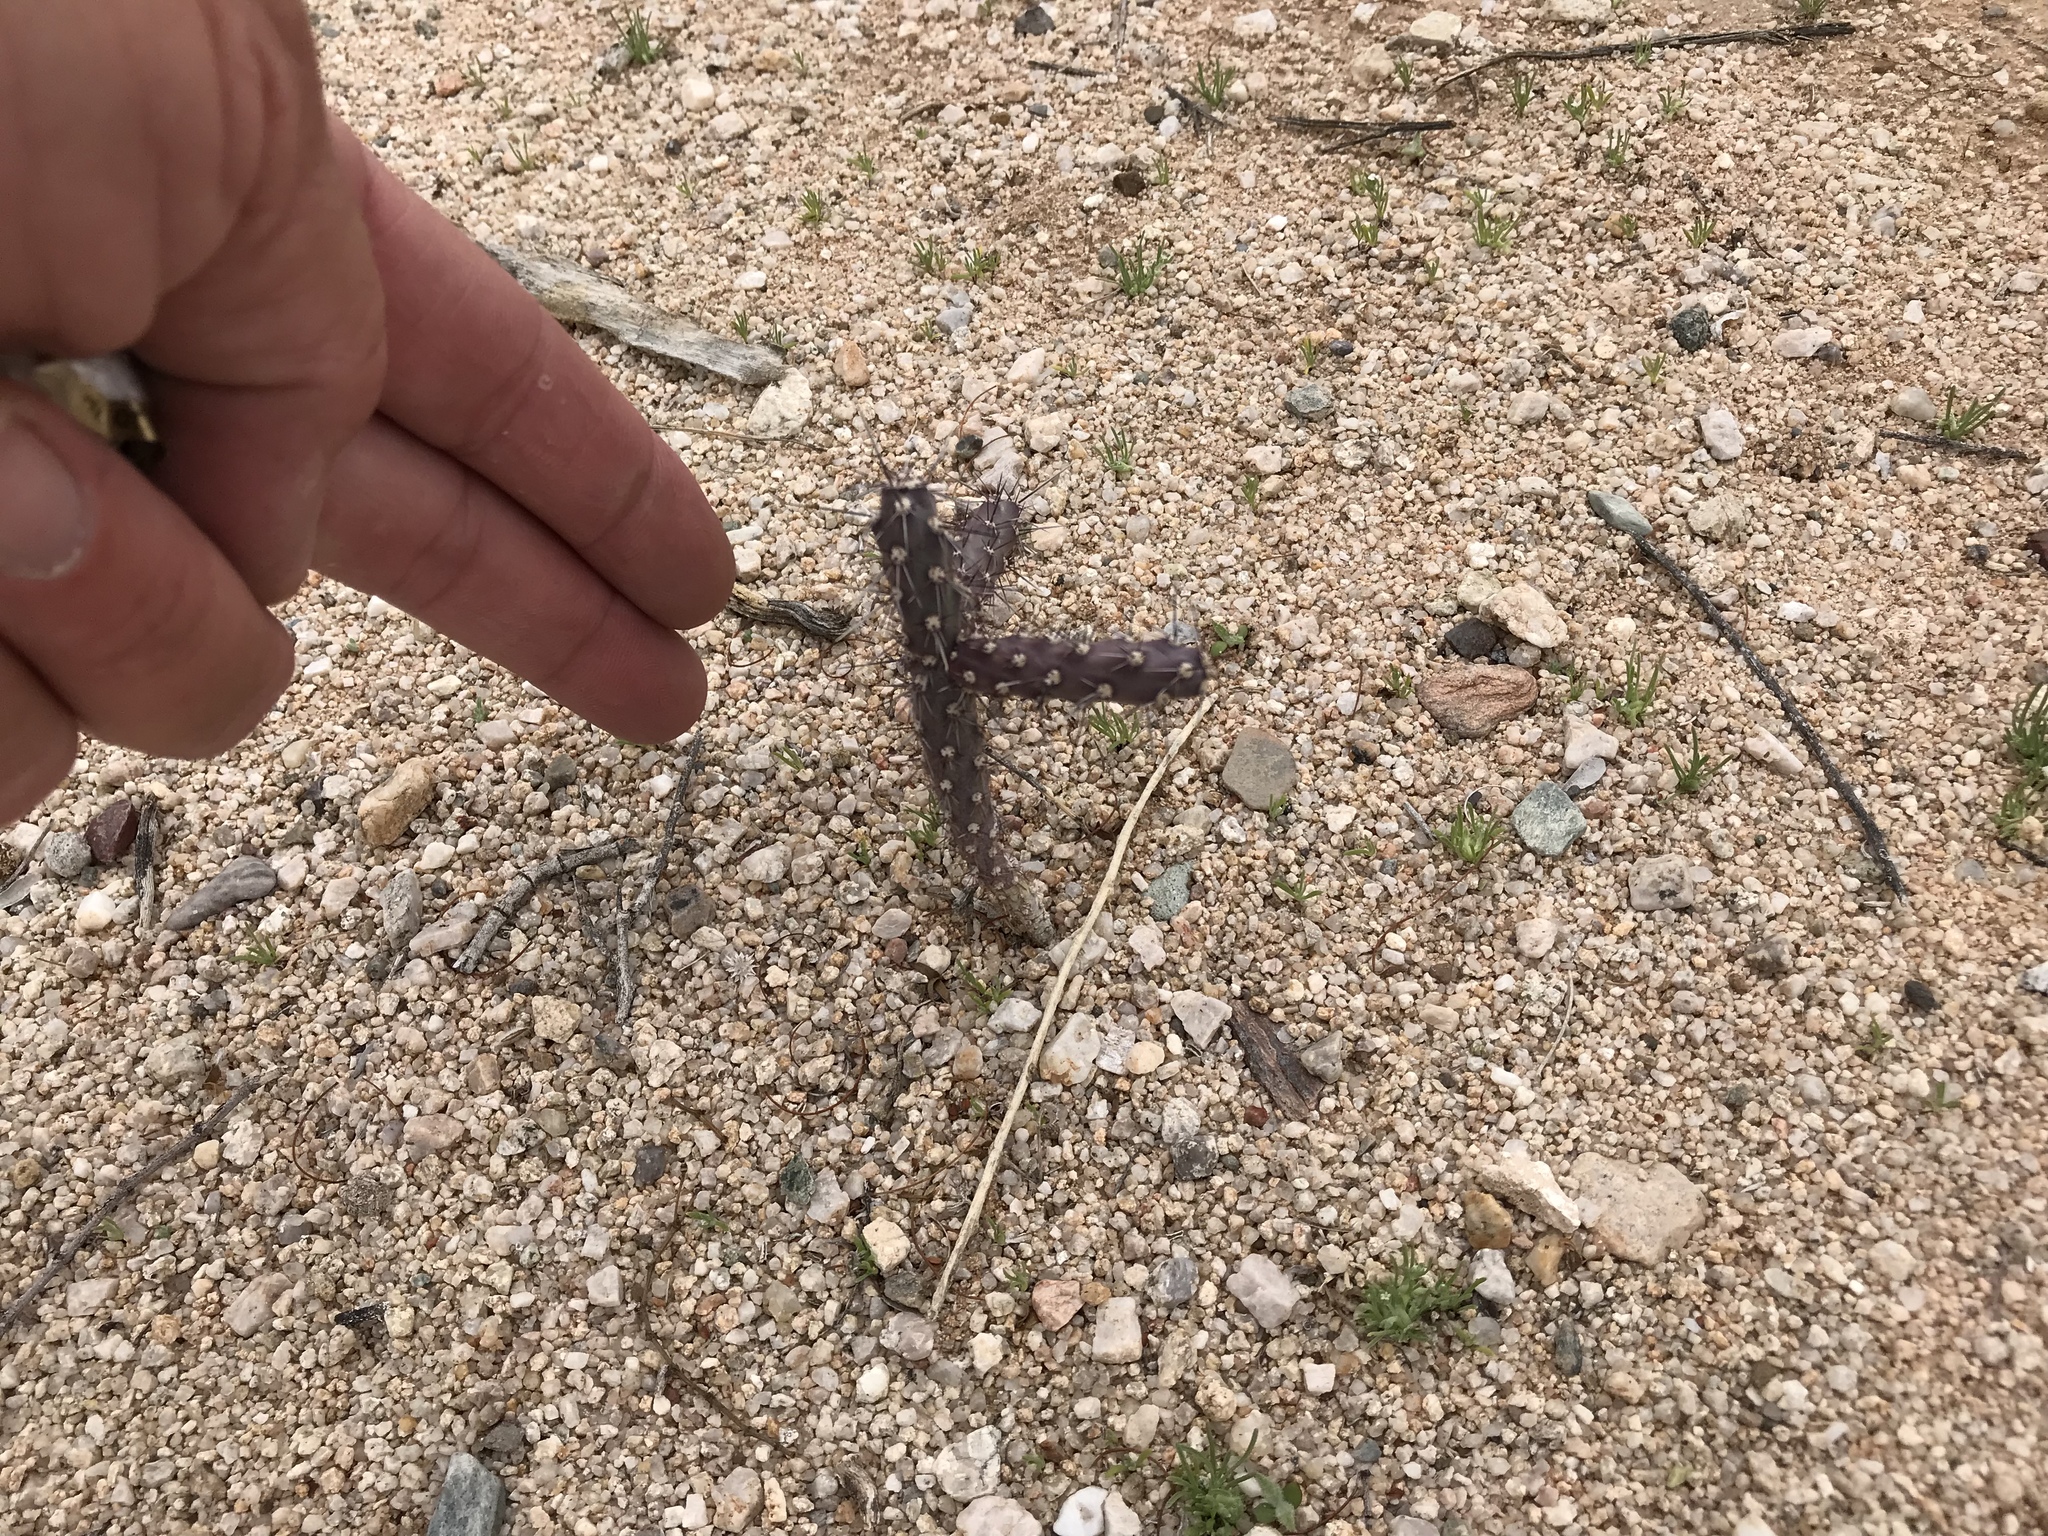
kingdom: Plantae
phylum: Tracheophyta
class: Magnoliopsida
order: Caryophyllales
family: Cactaceae
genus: Cylindropuntia
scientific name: Cylindropuntia thurberi
